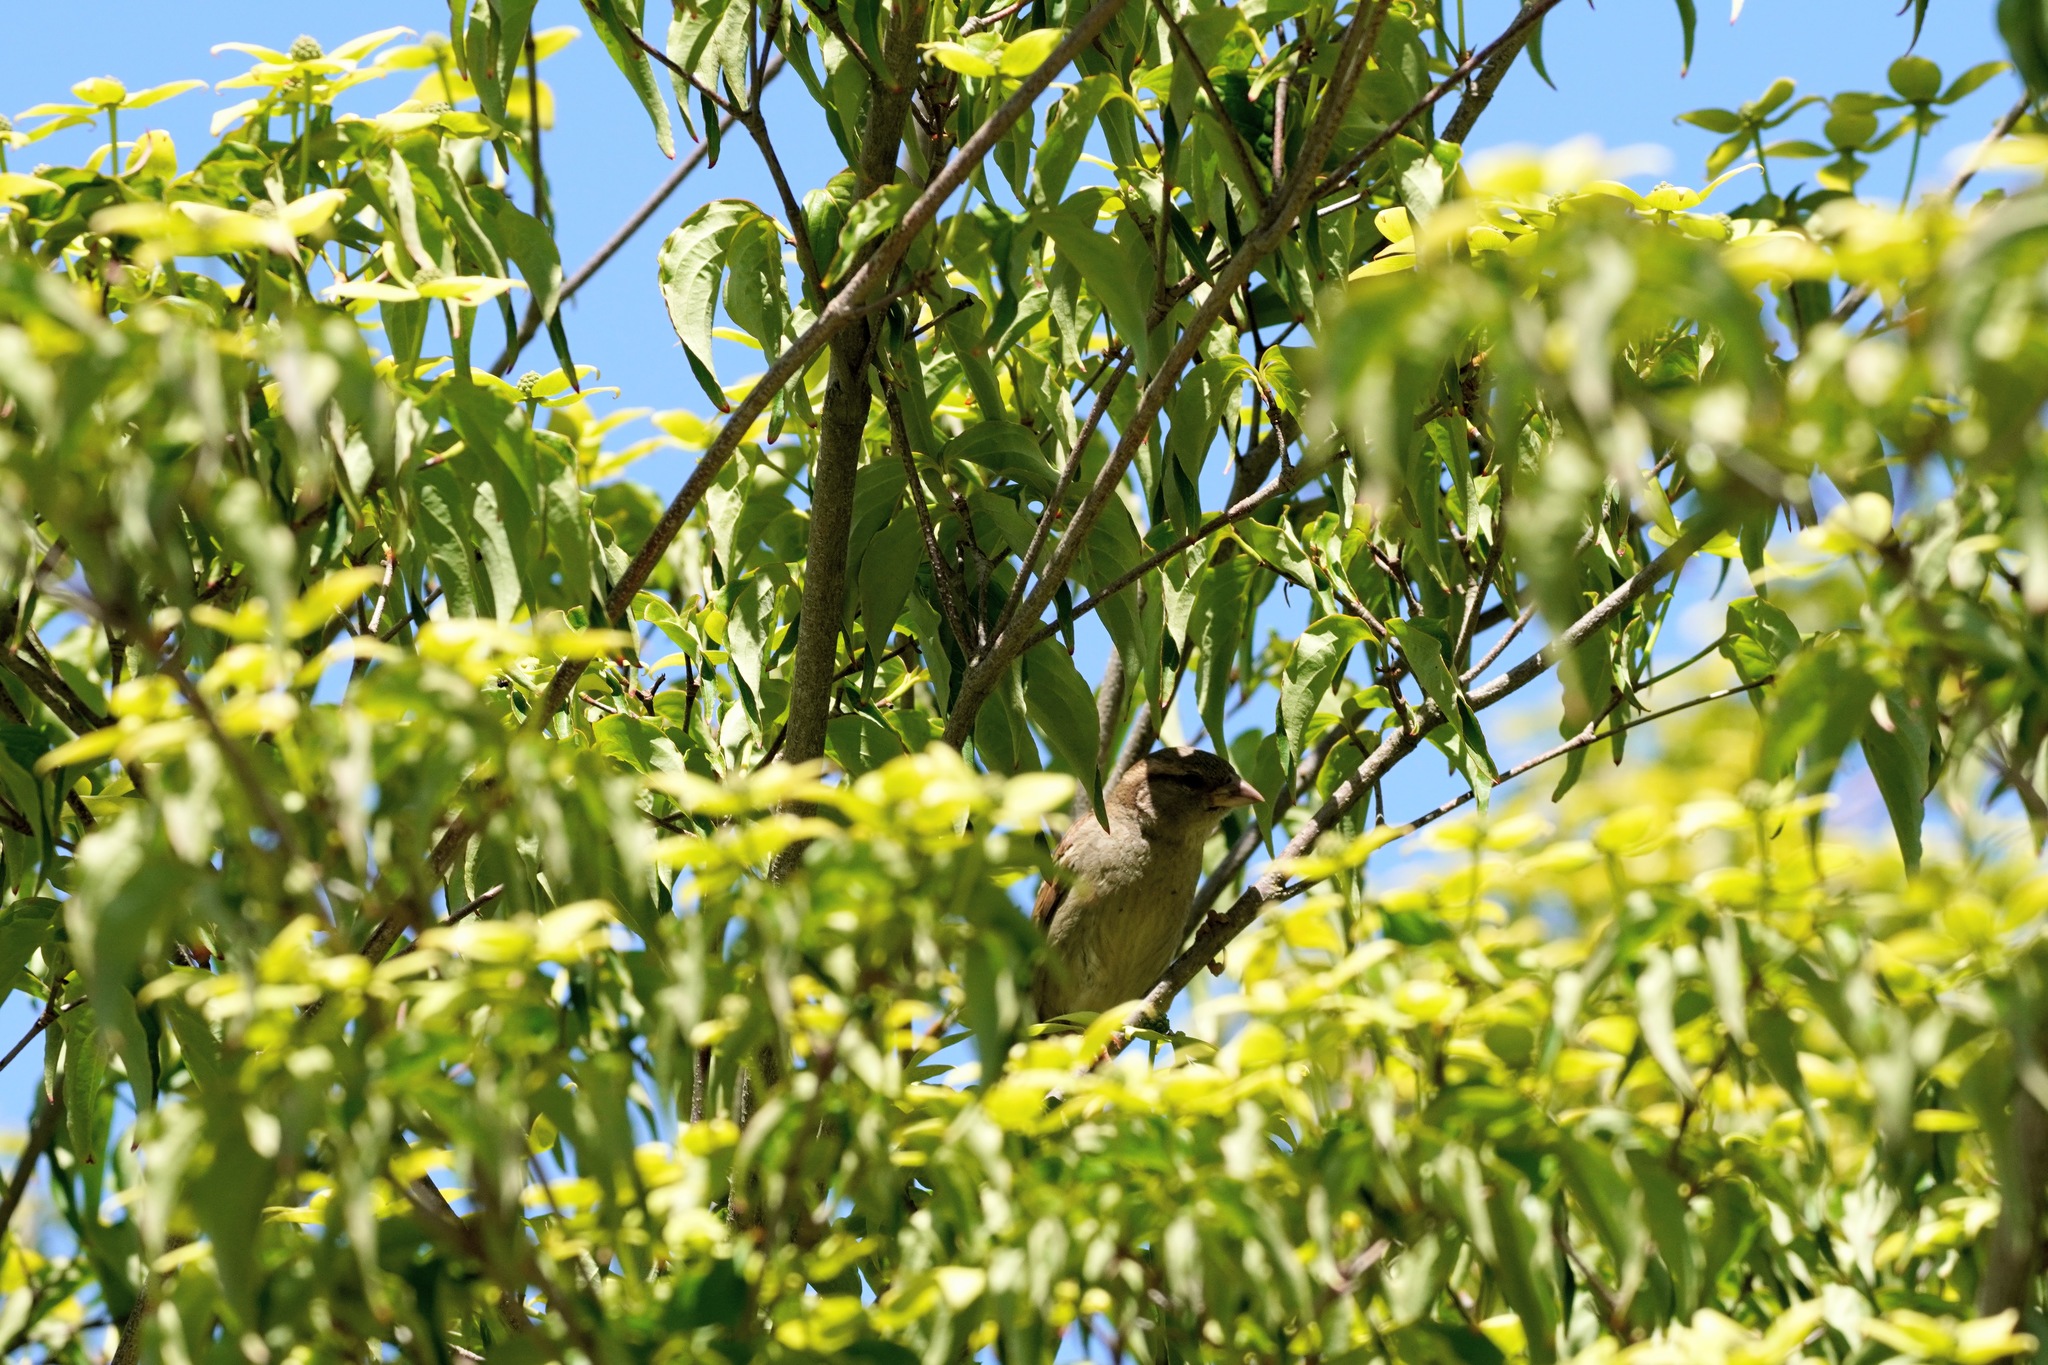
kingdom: Animalia
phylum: Chordata
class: Aves
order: Passeriformes
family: Passeridae
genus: Passer
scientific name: Passer domesticus
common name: House sparrow
